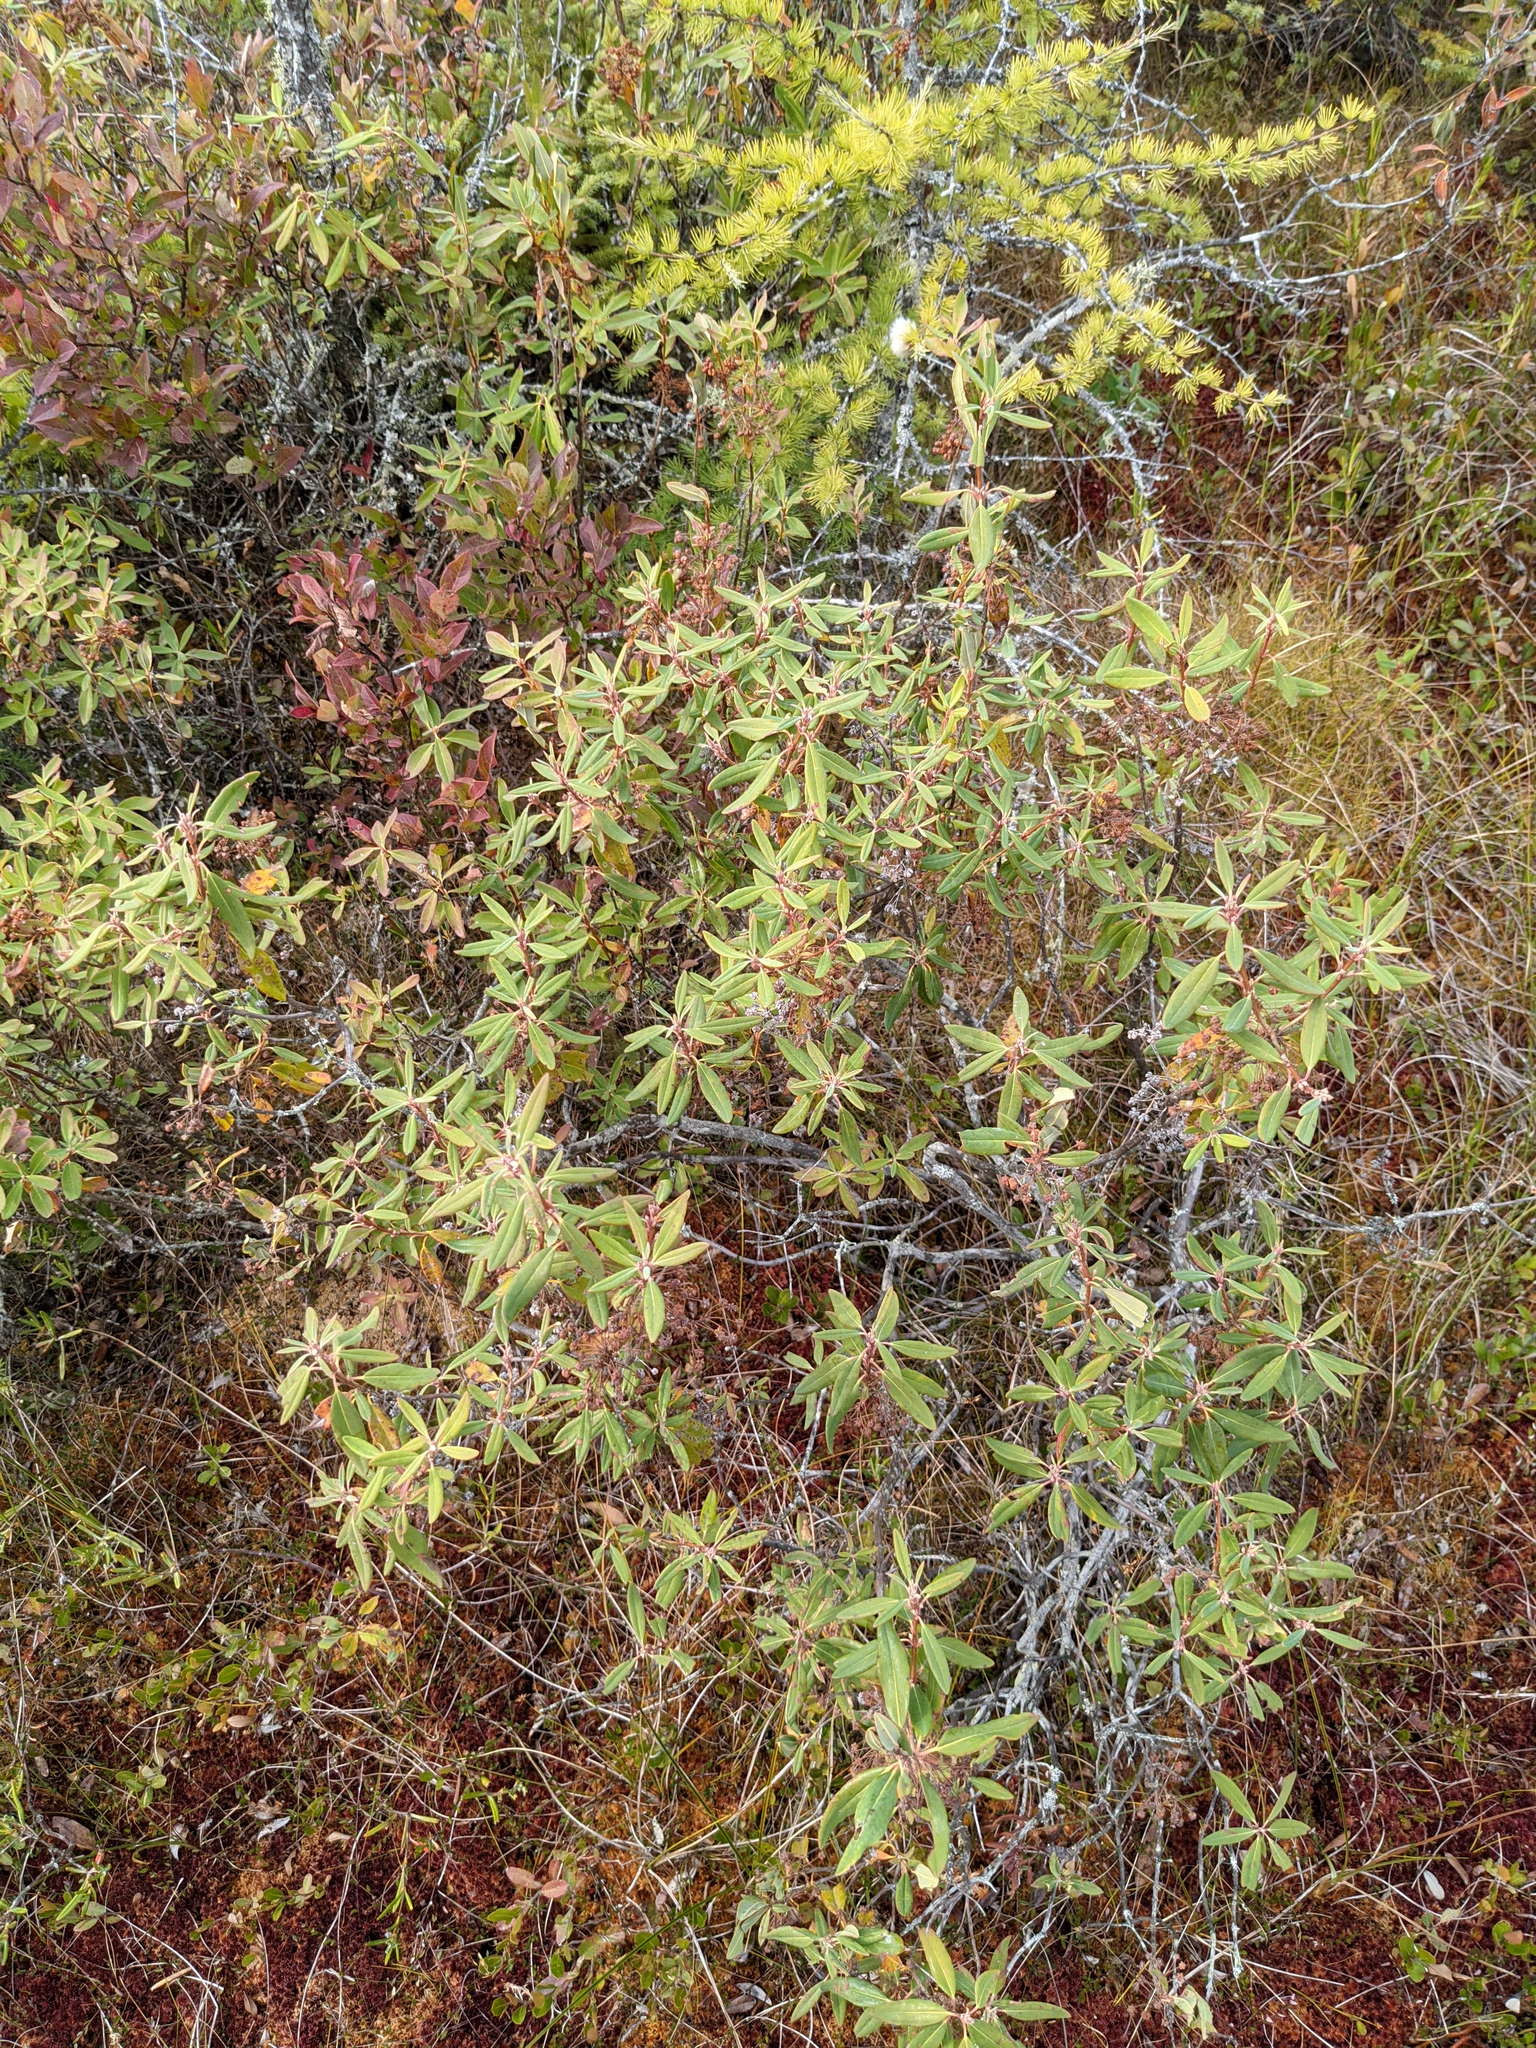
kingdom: Plantae
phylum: Tracheophyta
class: Magnoliopsida
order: Ericales
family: Ericaceae
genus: Kalmia
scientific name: Kalmia angustifolia
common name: Sheep-laurel
